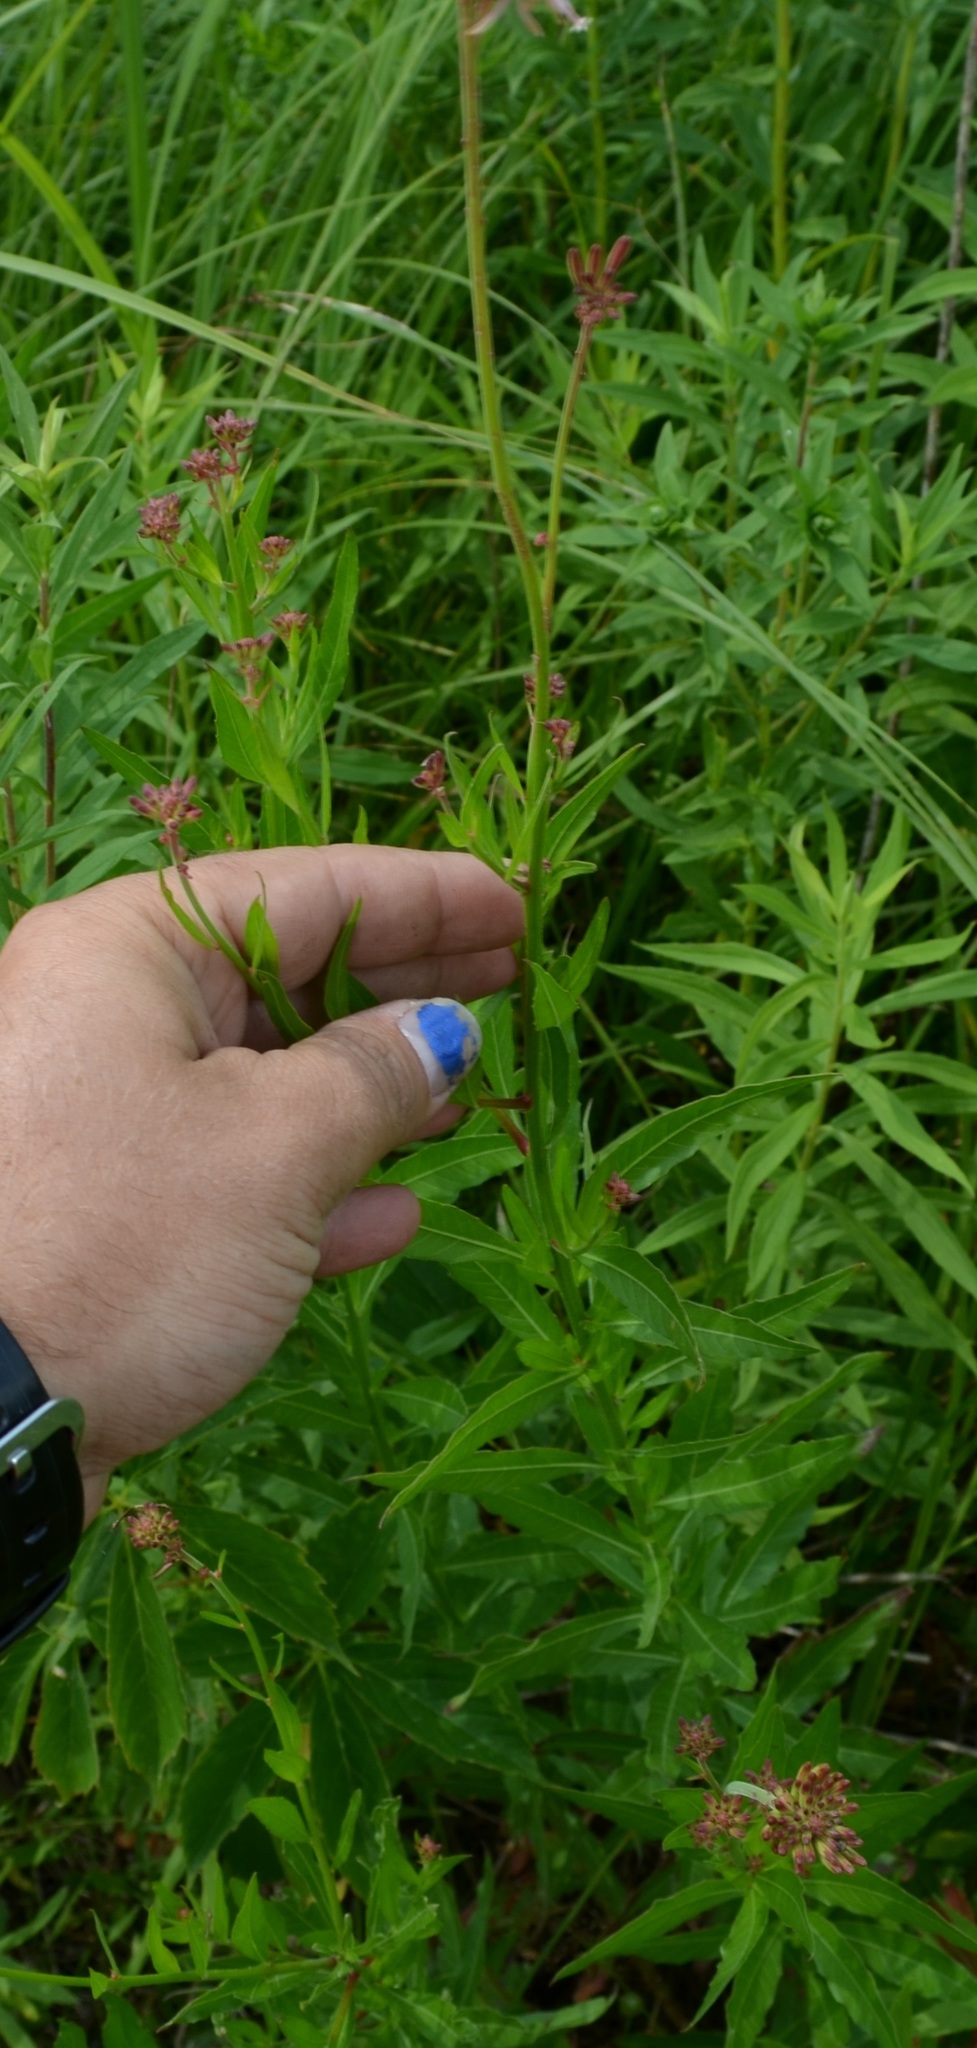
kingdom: Plantae
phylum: Tracheophyta
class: Magnoliopsida
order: Myrtales
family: Onagraceae
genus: Oenothera
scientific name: Oenothera gaura
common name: Biennial beeblossom
